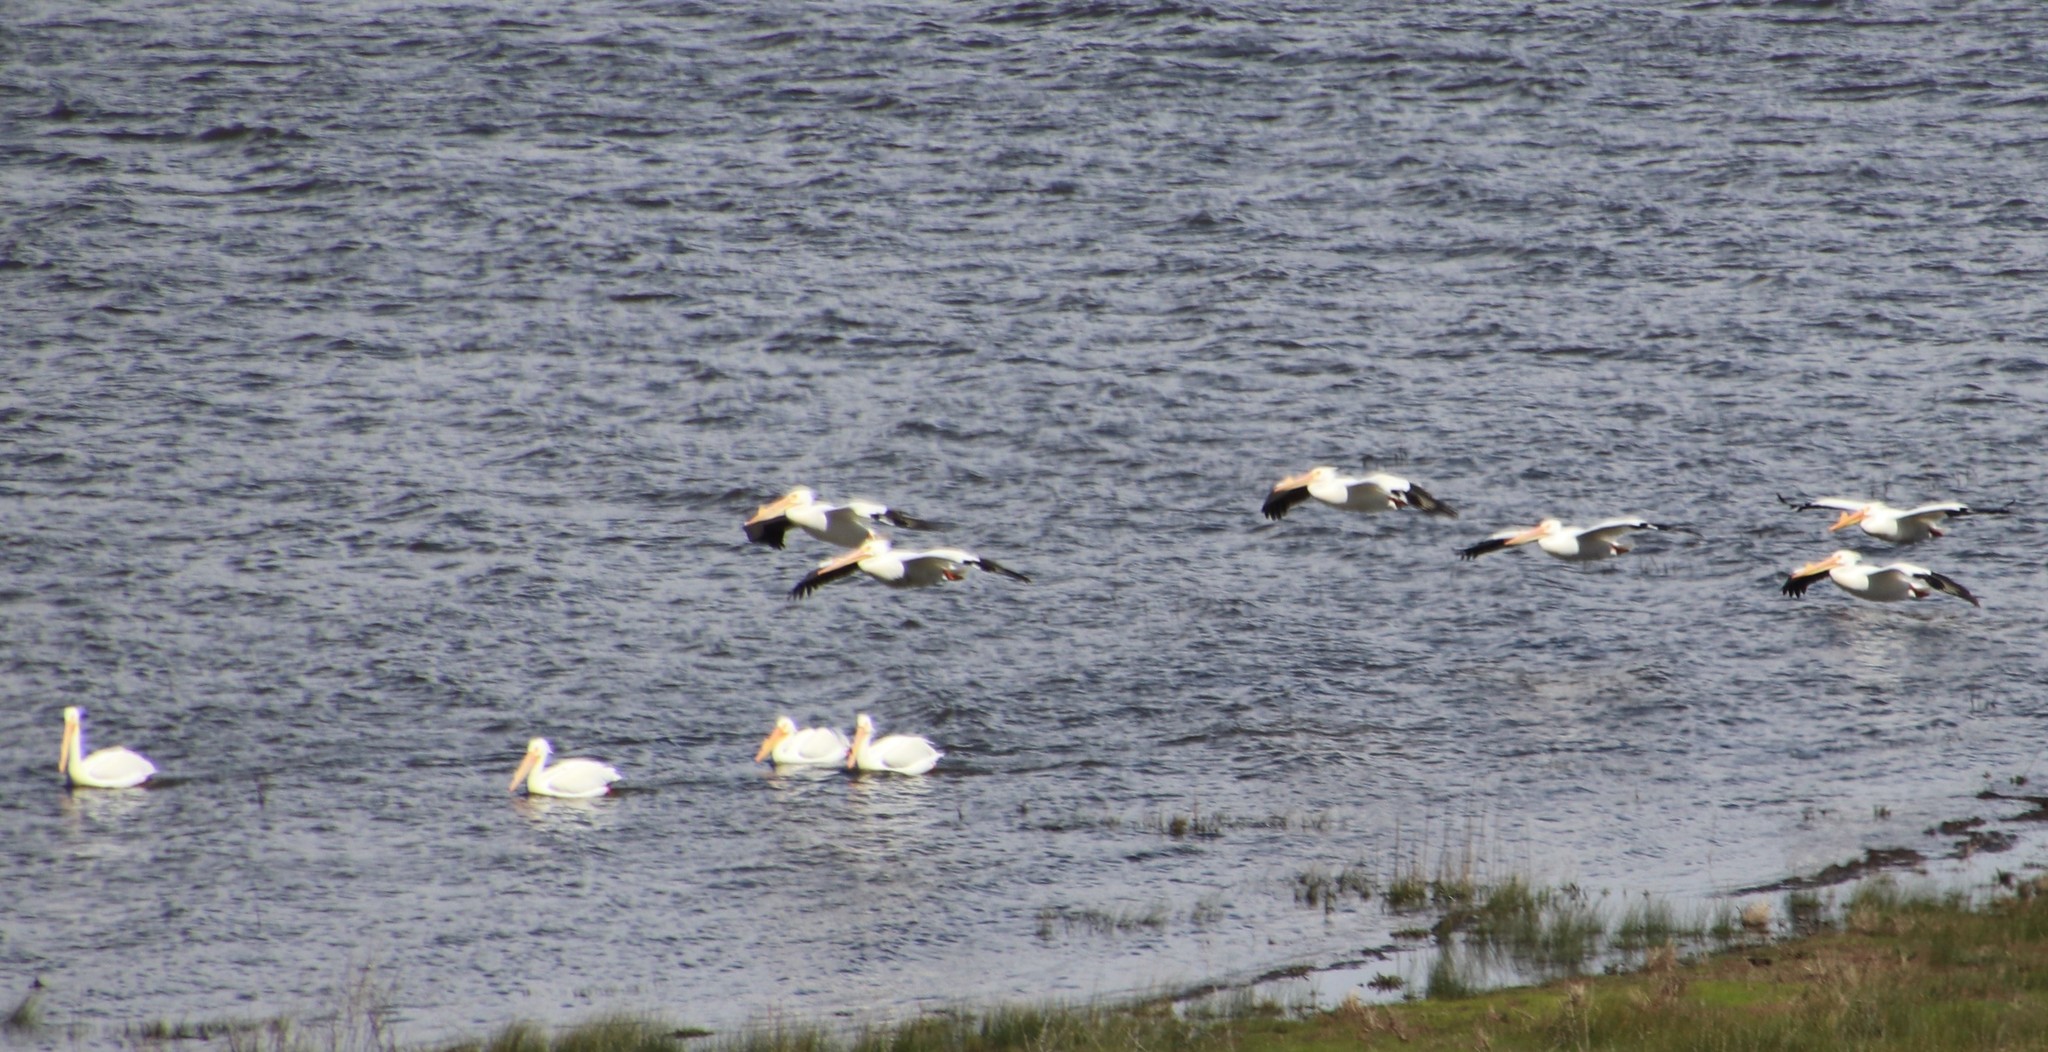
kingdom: Animalia
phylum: Chordata
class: Aves
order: Pelecaniformes
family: Pelecanidae
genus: Pelecanus
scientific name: Pelecanus erythrorhynchos
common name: American white pelican
